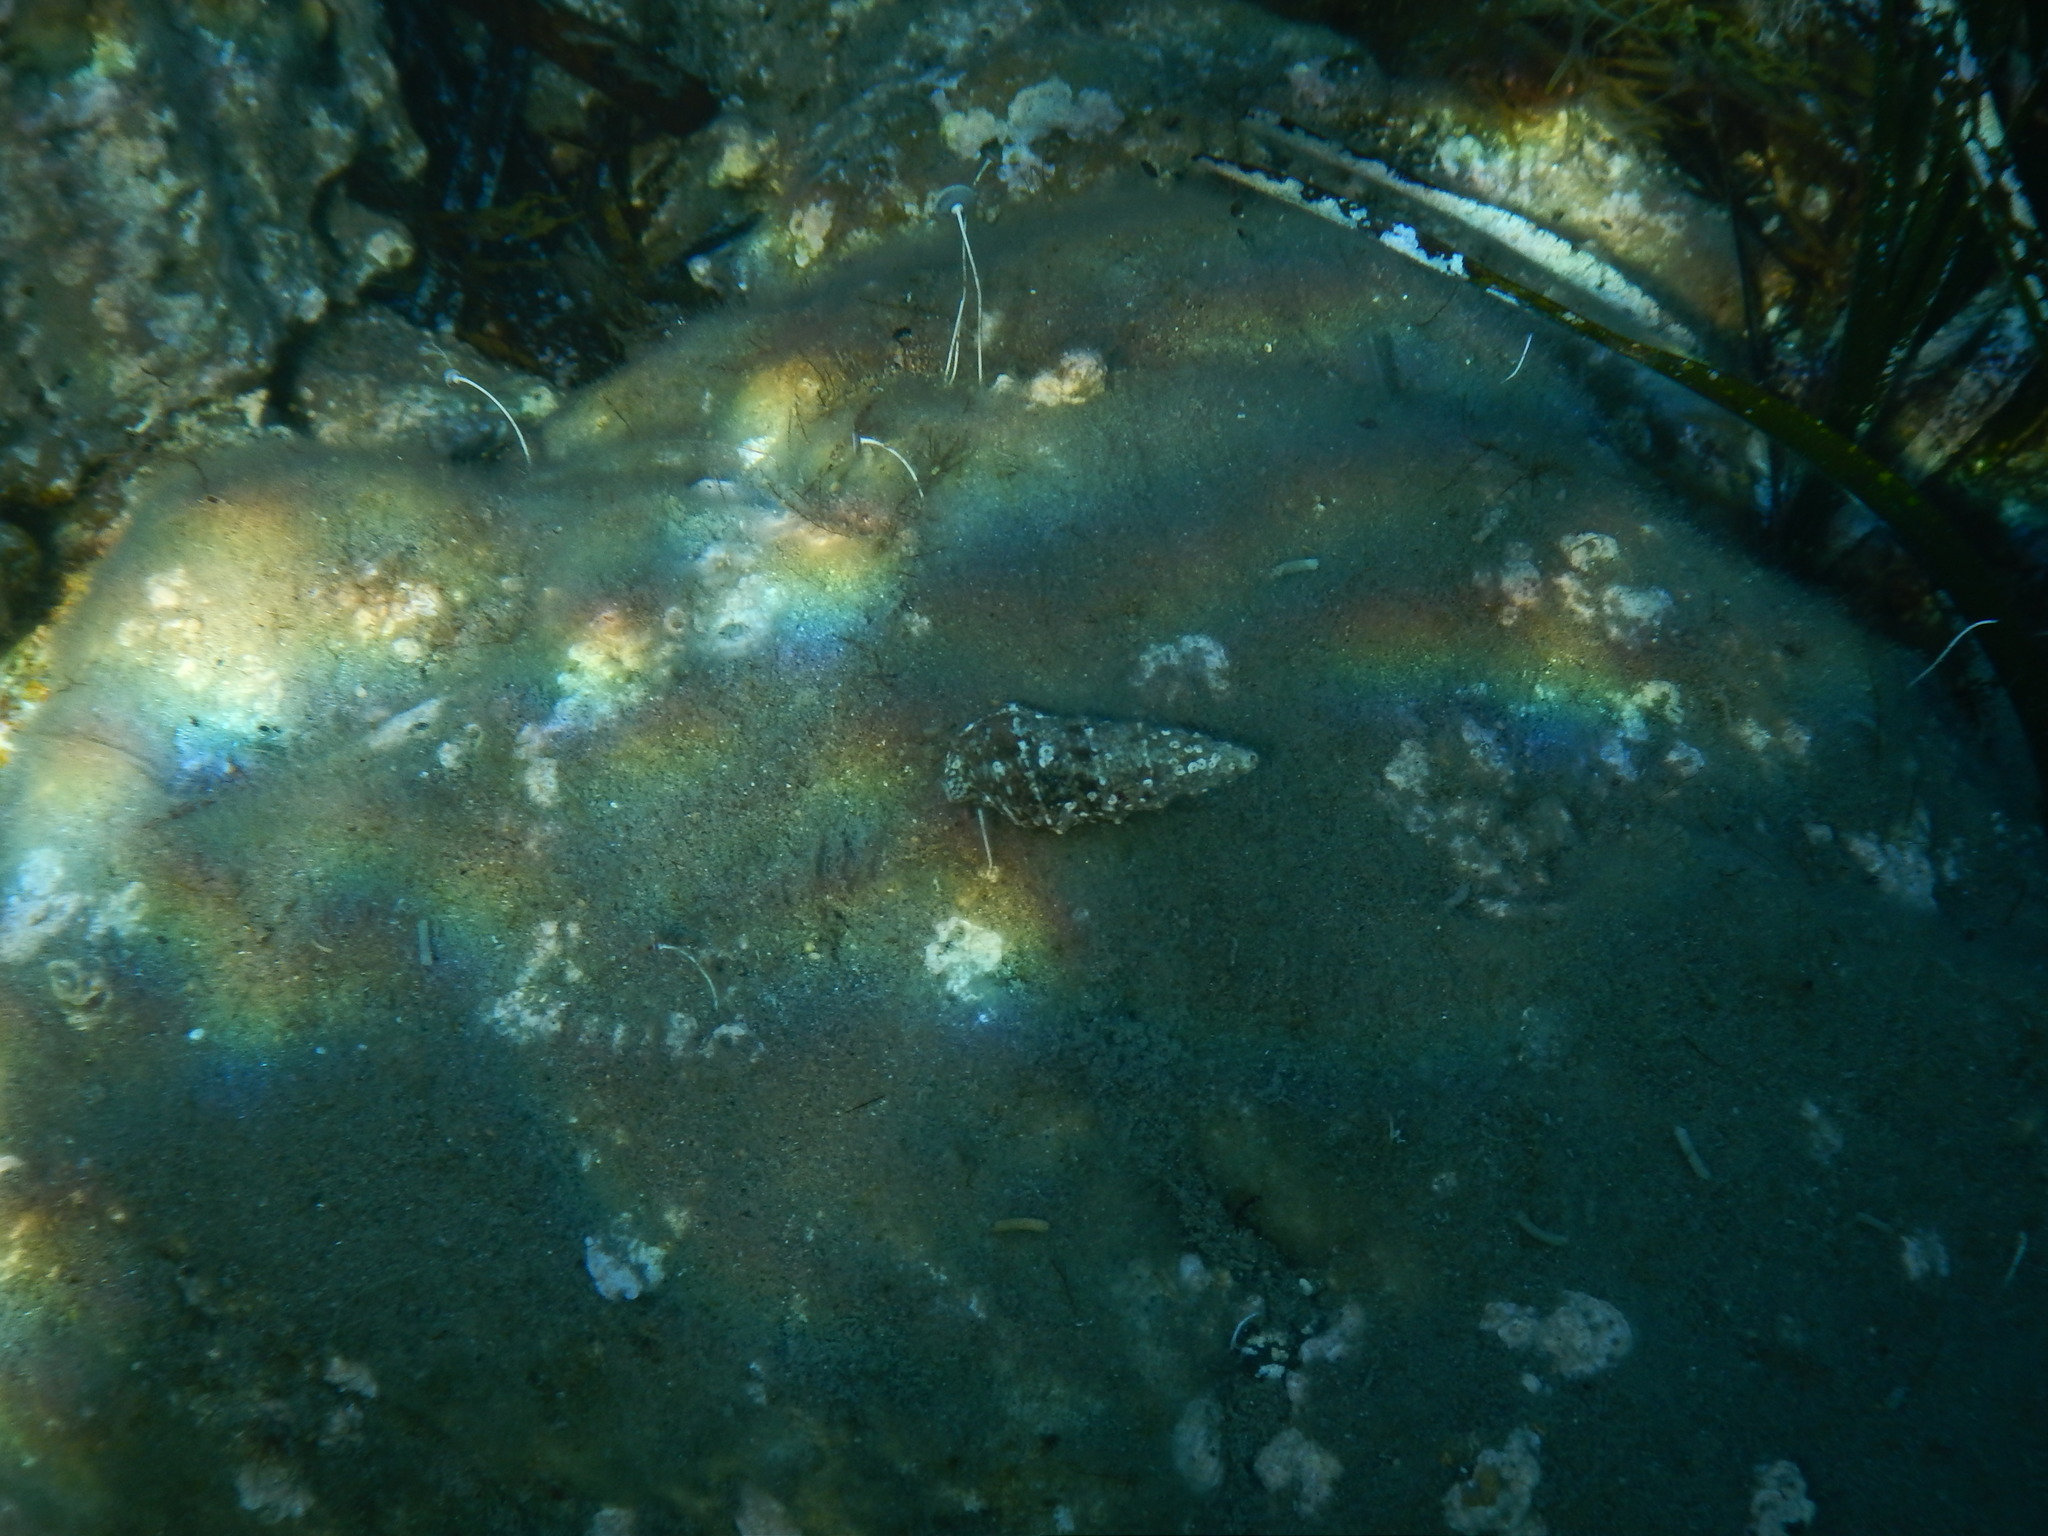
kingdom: Animalia
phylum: Mollusca
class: Gastropoda
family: Cerithiidae
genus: Cerithium
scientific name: Cerithium vulgatum
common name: European cerith
